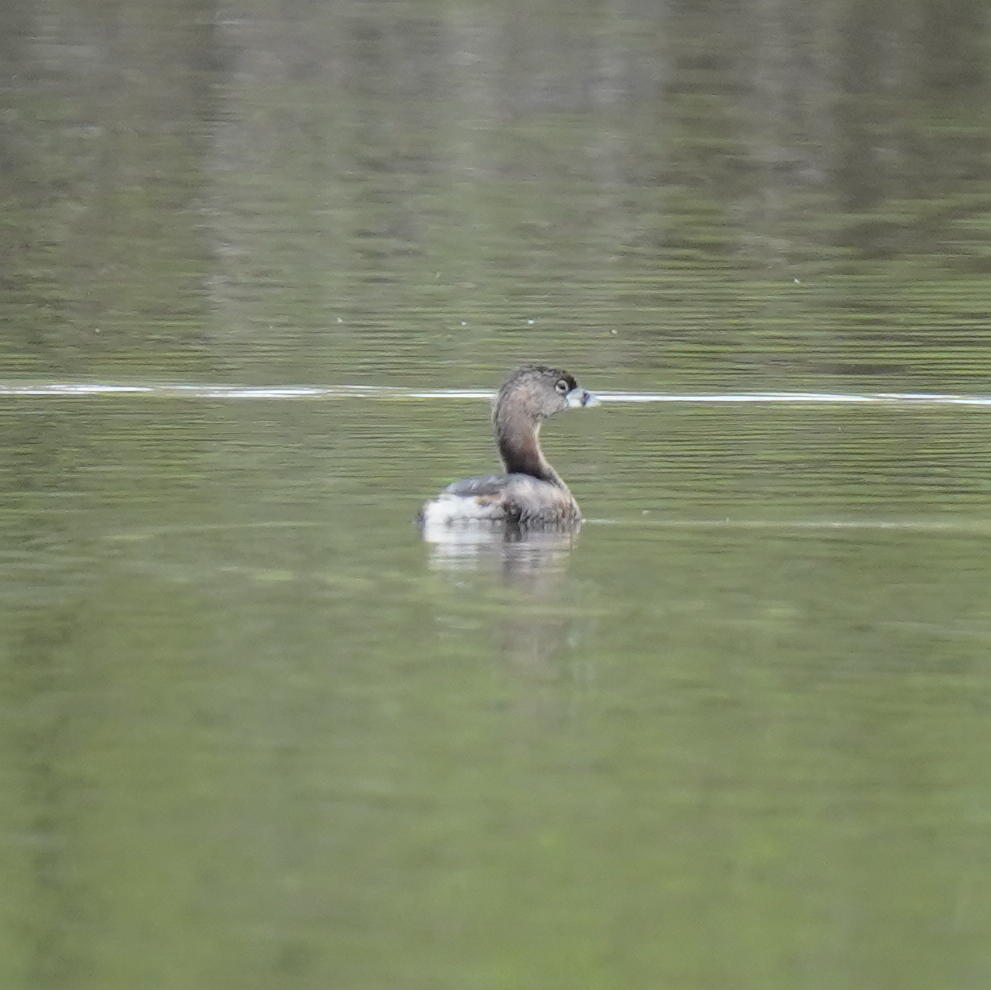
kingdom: Animalia
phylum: Chordata
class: Aves
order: Podicipediformes
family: Podicipedidae
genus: Podilymbus
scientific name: Podilymbus podiceps
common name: Pied-billed grebe
